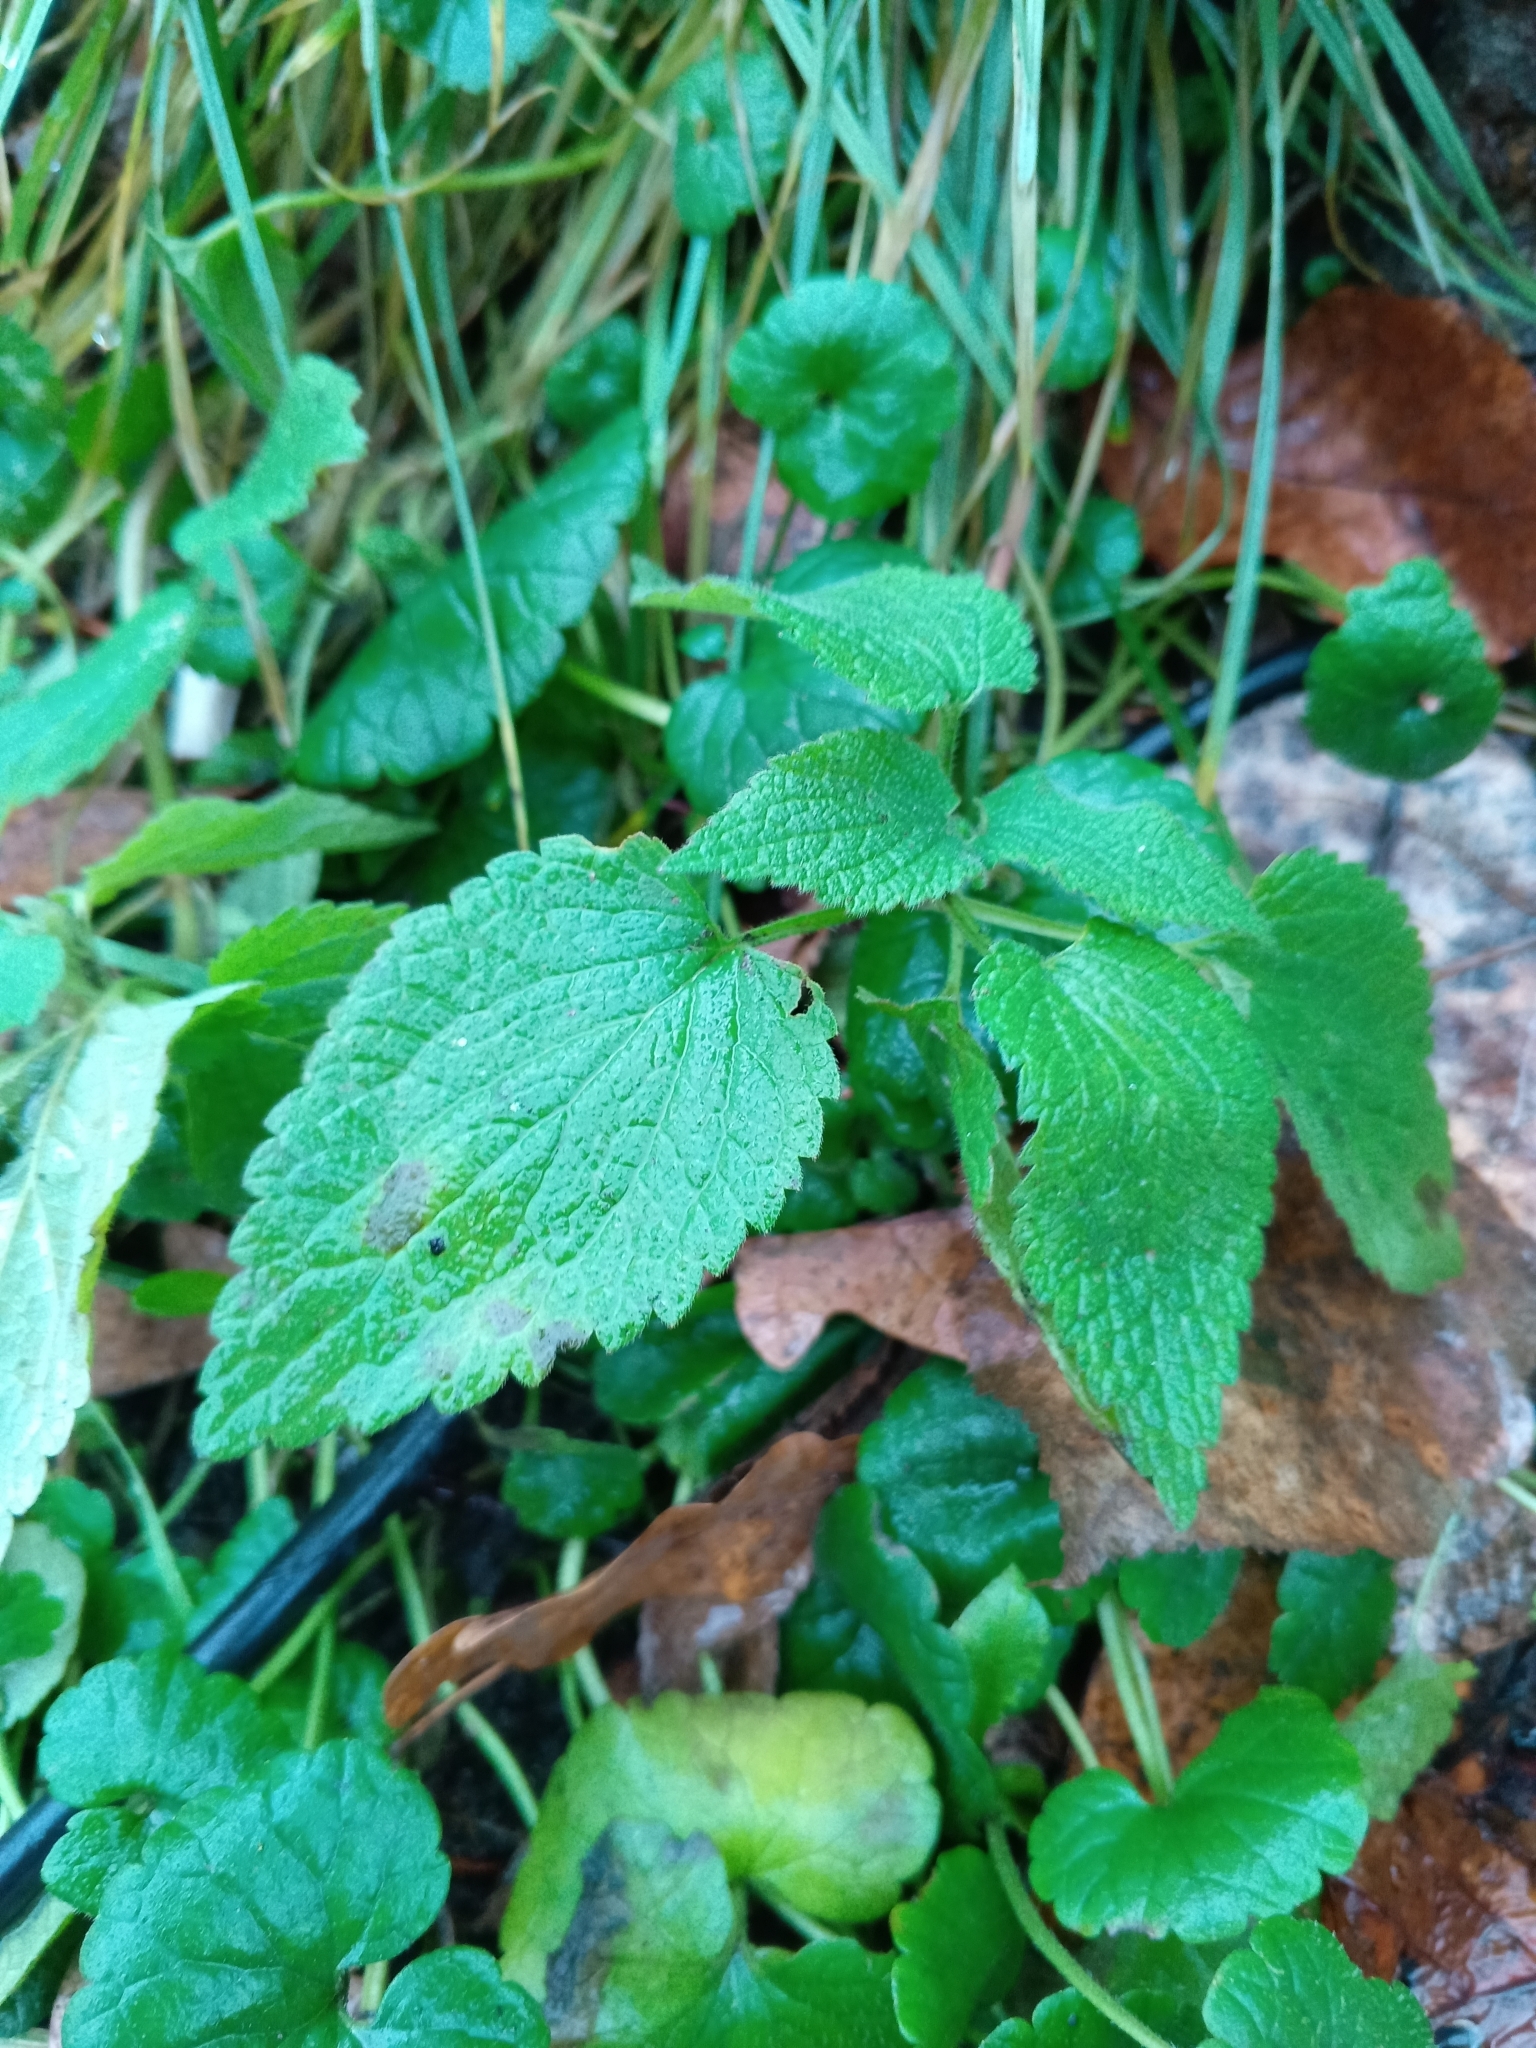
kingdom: Plantae
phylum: Tracheophyta
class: Magnoliopsida
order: Lamiales
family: Lamiaceae
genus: Lamium
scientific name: Lamium album
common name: White dead-nettle
